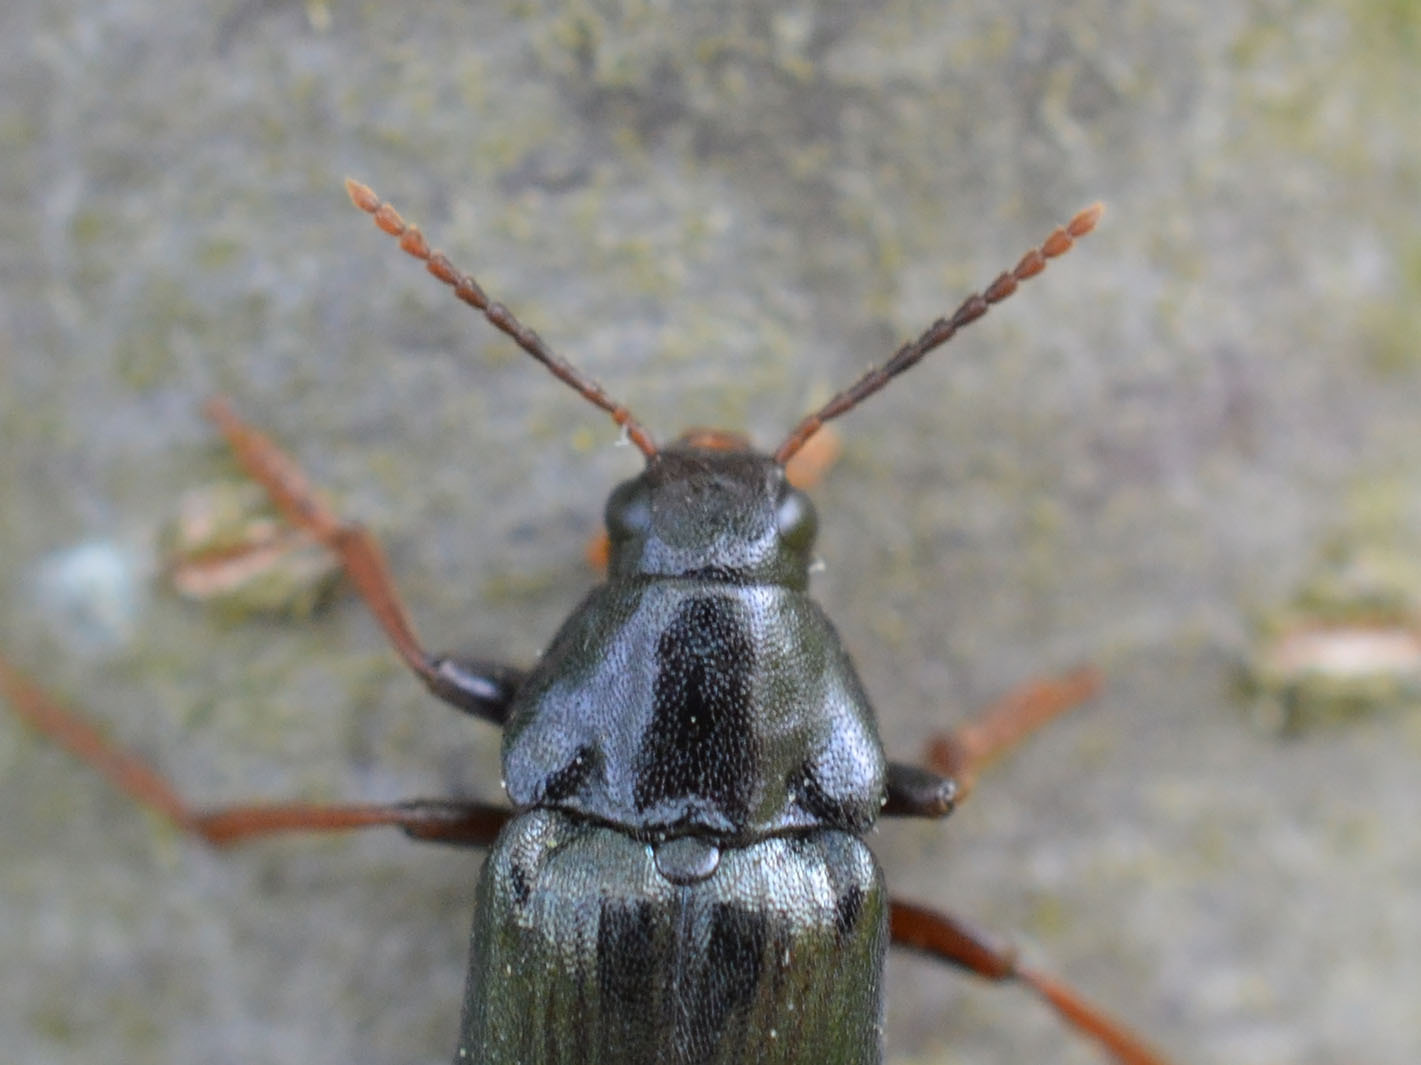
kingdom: Animalia
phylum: Arthropoda
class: Insecta
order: Coleoptera
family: Melandryidae
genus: Melandrya
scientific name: Melandrya caraboides
